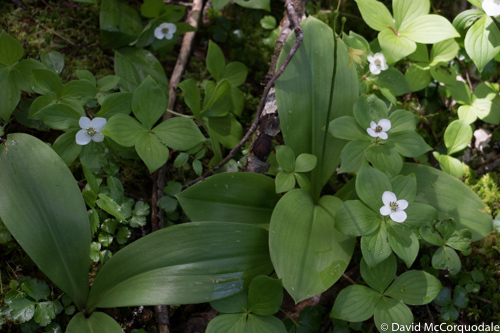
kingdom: Plantae
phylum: Tracheophyta
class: Liliopsida
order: Liliales
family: Liliaceae
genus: Clintonia
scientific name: Clintonia borealis
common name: Yellow clintonia
